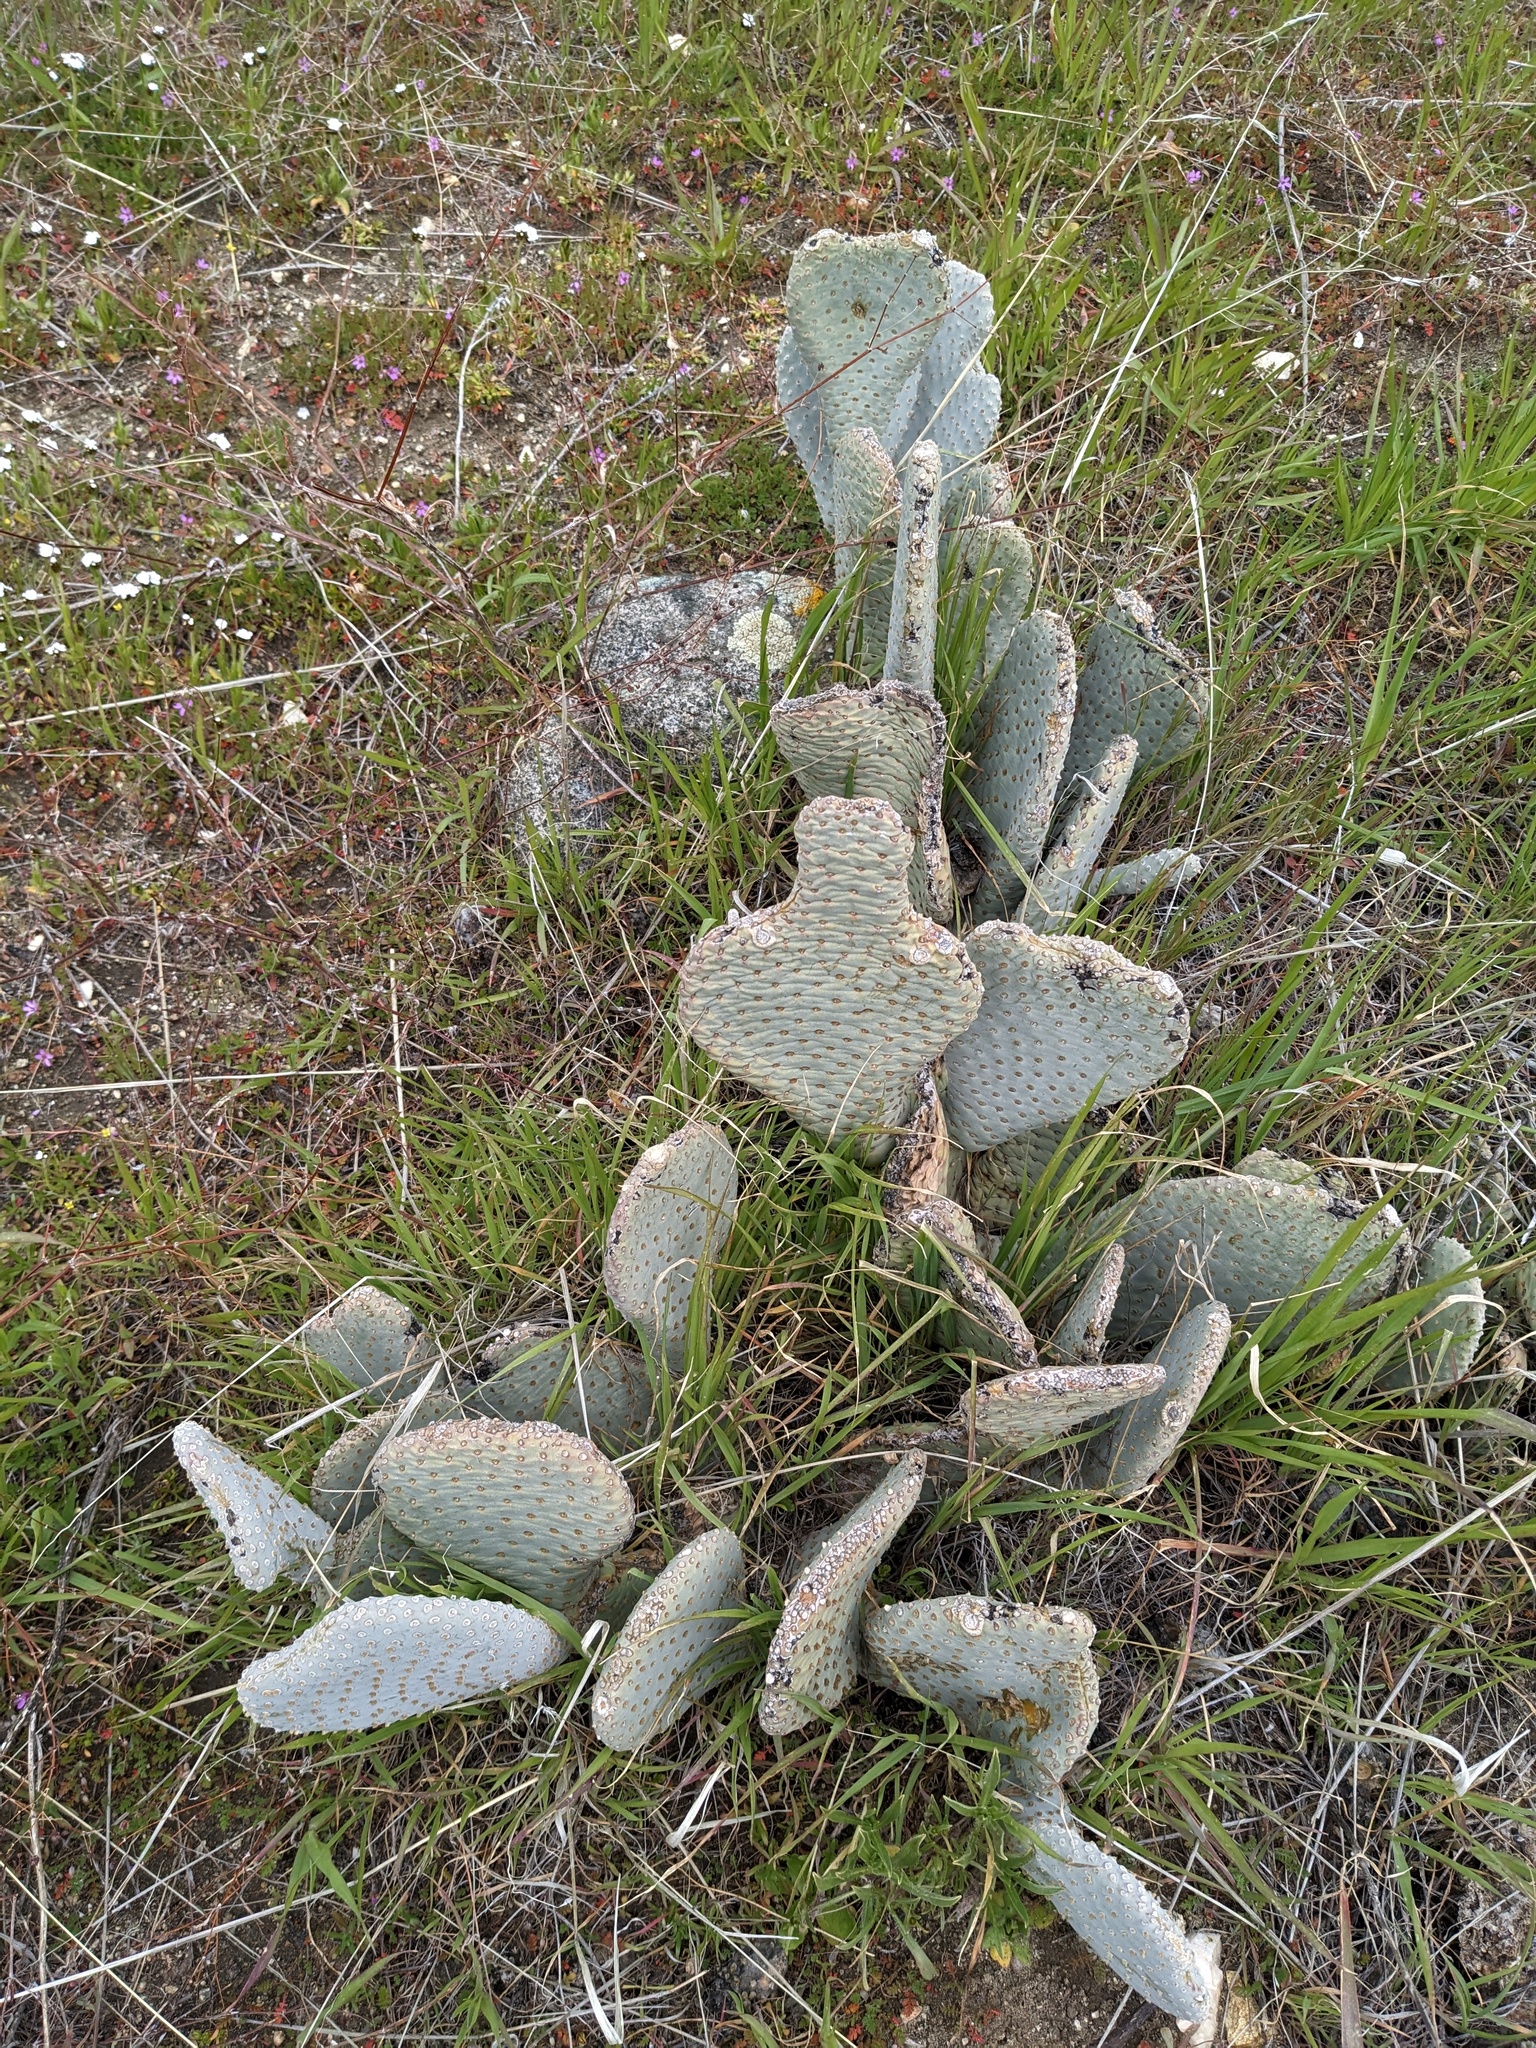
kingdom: Plantae
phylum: Tracheophyta
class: Magnoliopsida
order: Caryophyllales
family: Cactaceae
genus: Opuntia
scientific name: Opuntia basilaris
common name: Beavertail prickly-pear
